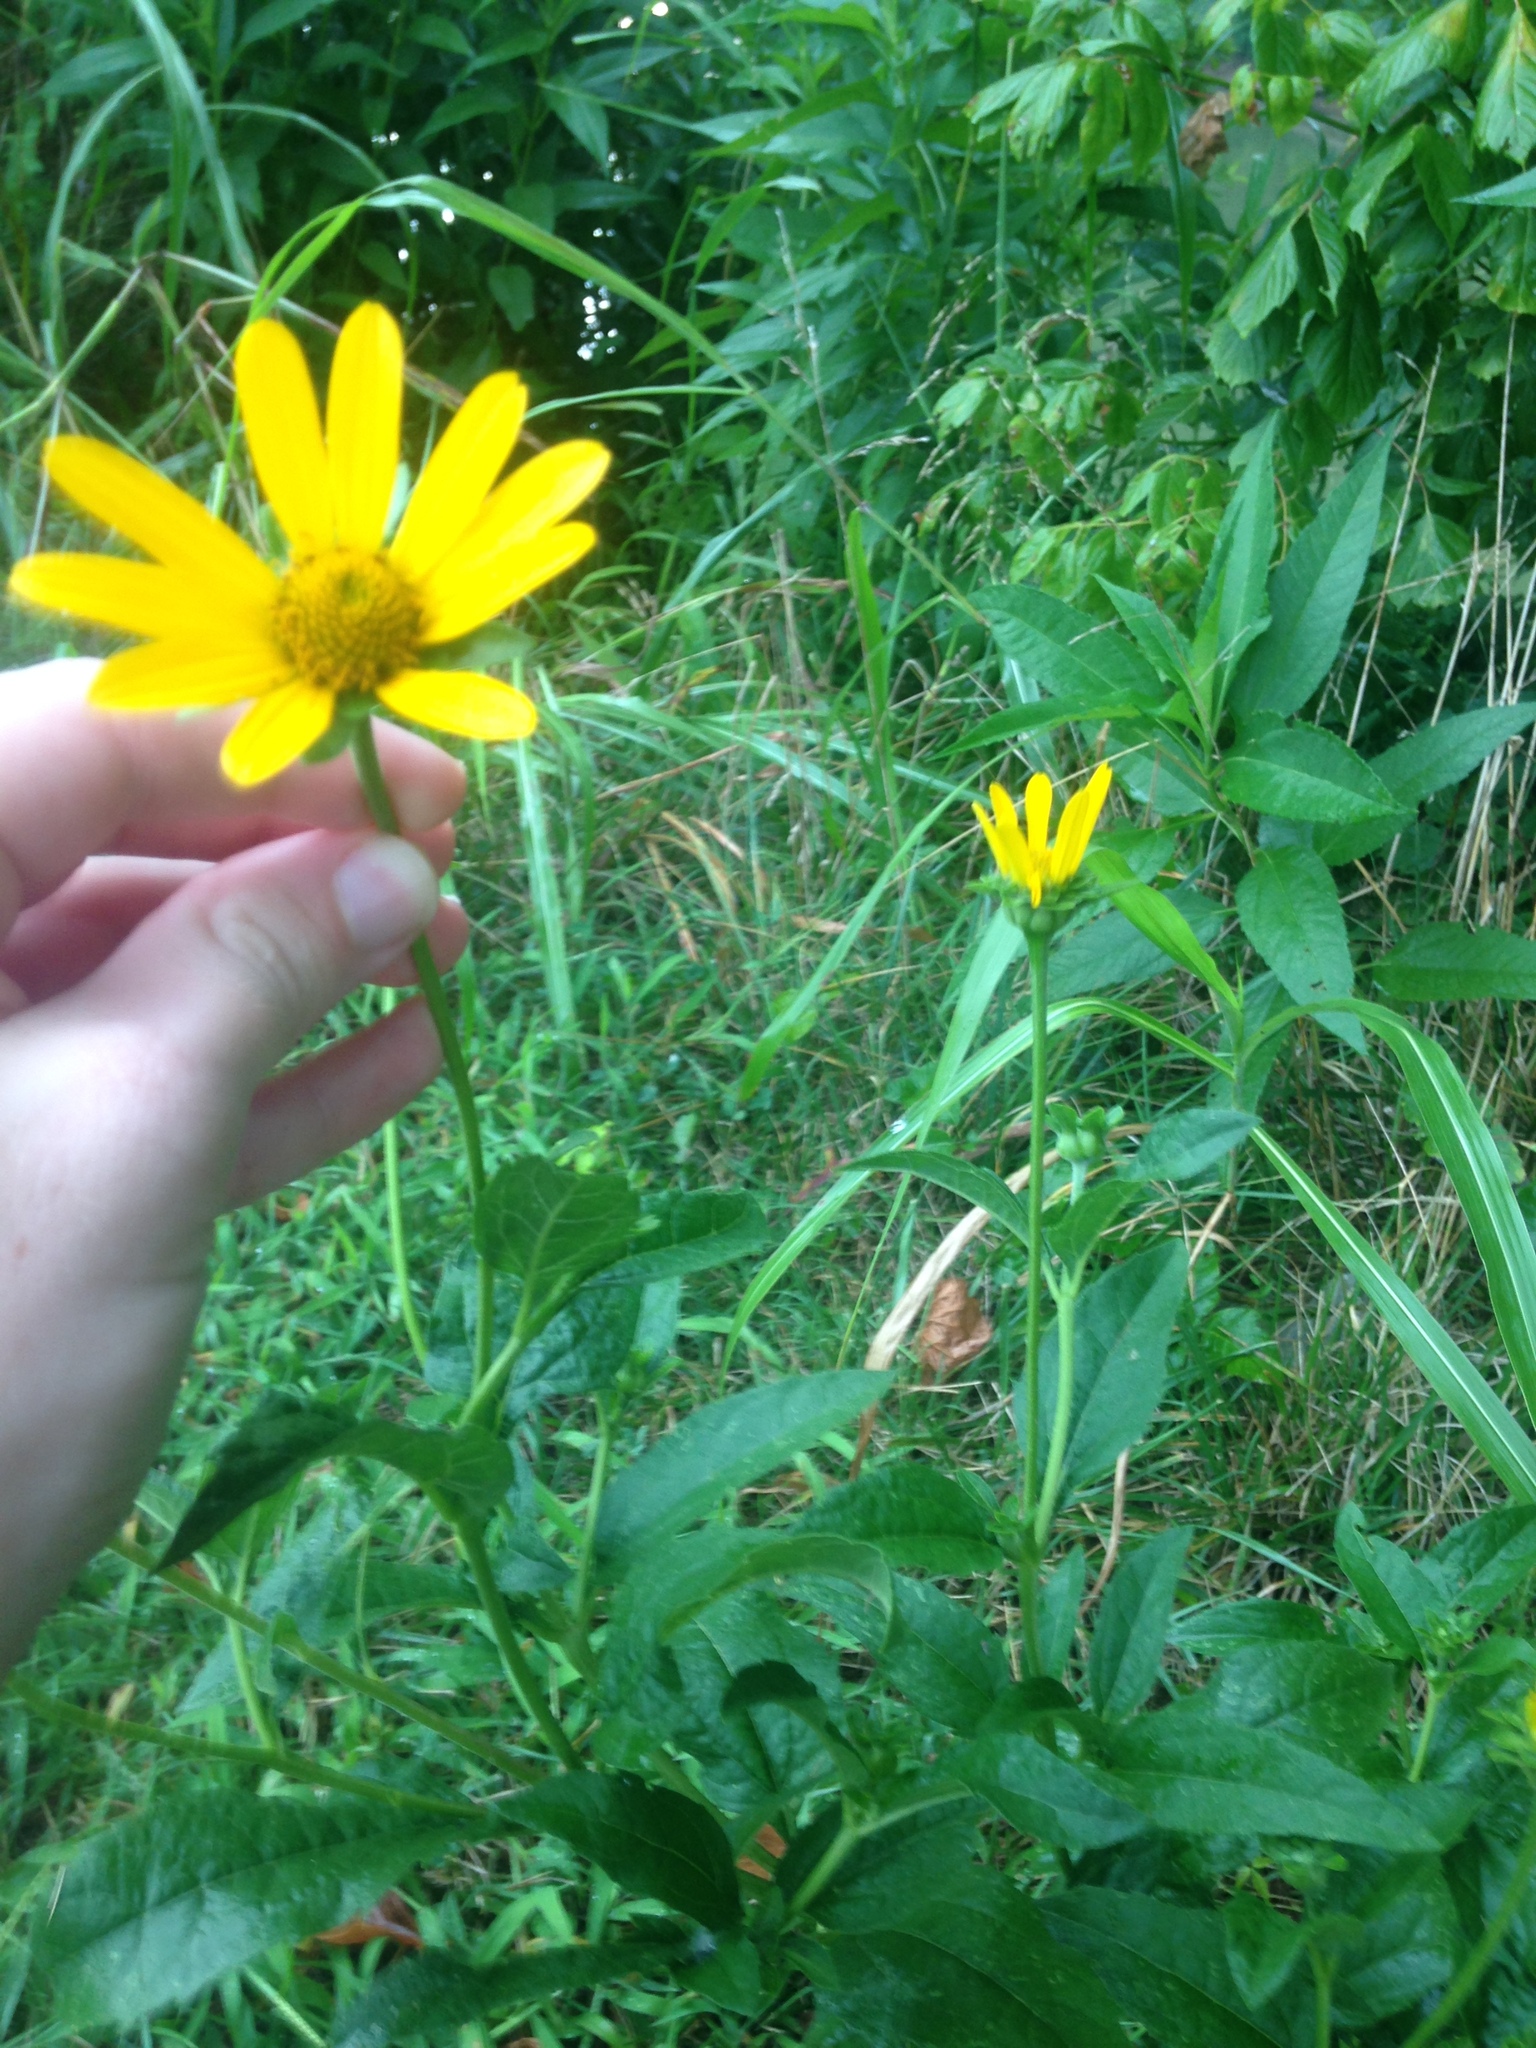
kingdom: Plantae
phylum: Tracheophyta
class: Magnoliopsida
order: Asterales
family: Asteraceae
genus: Heliopsis
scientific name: Heliopsis helianthoides
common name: False sunflower
